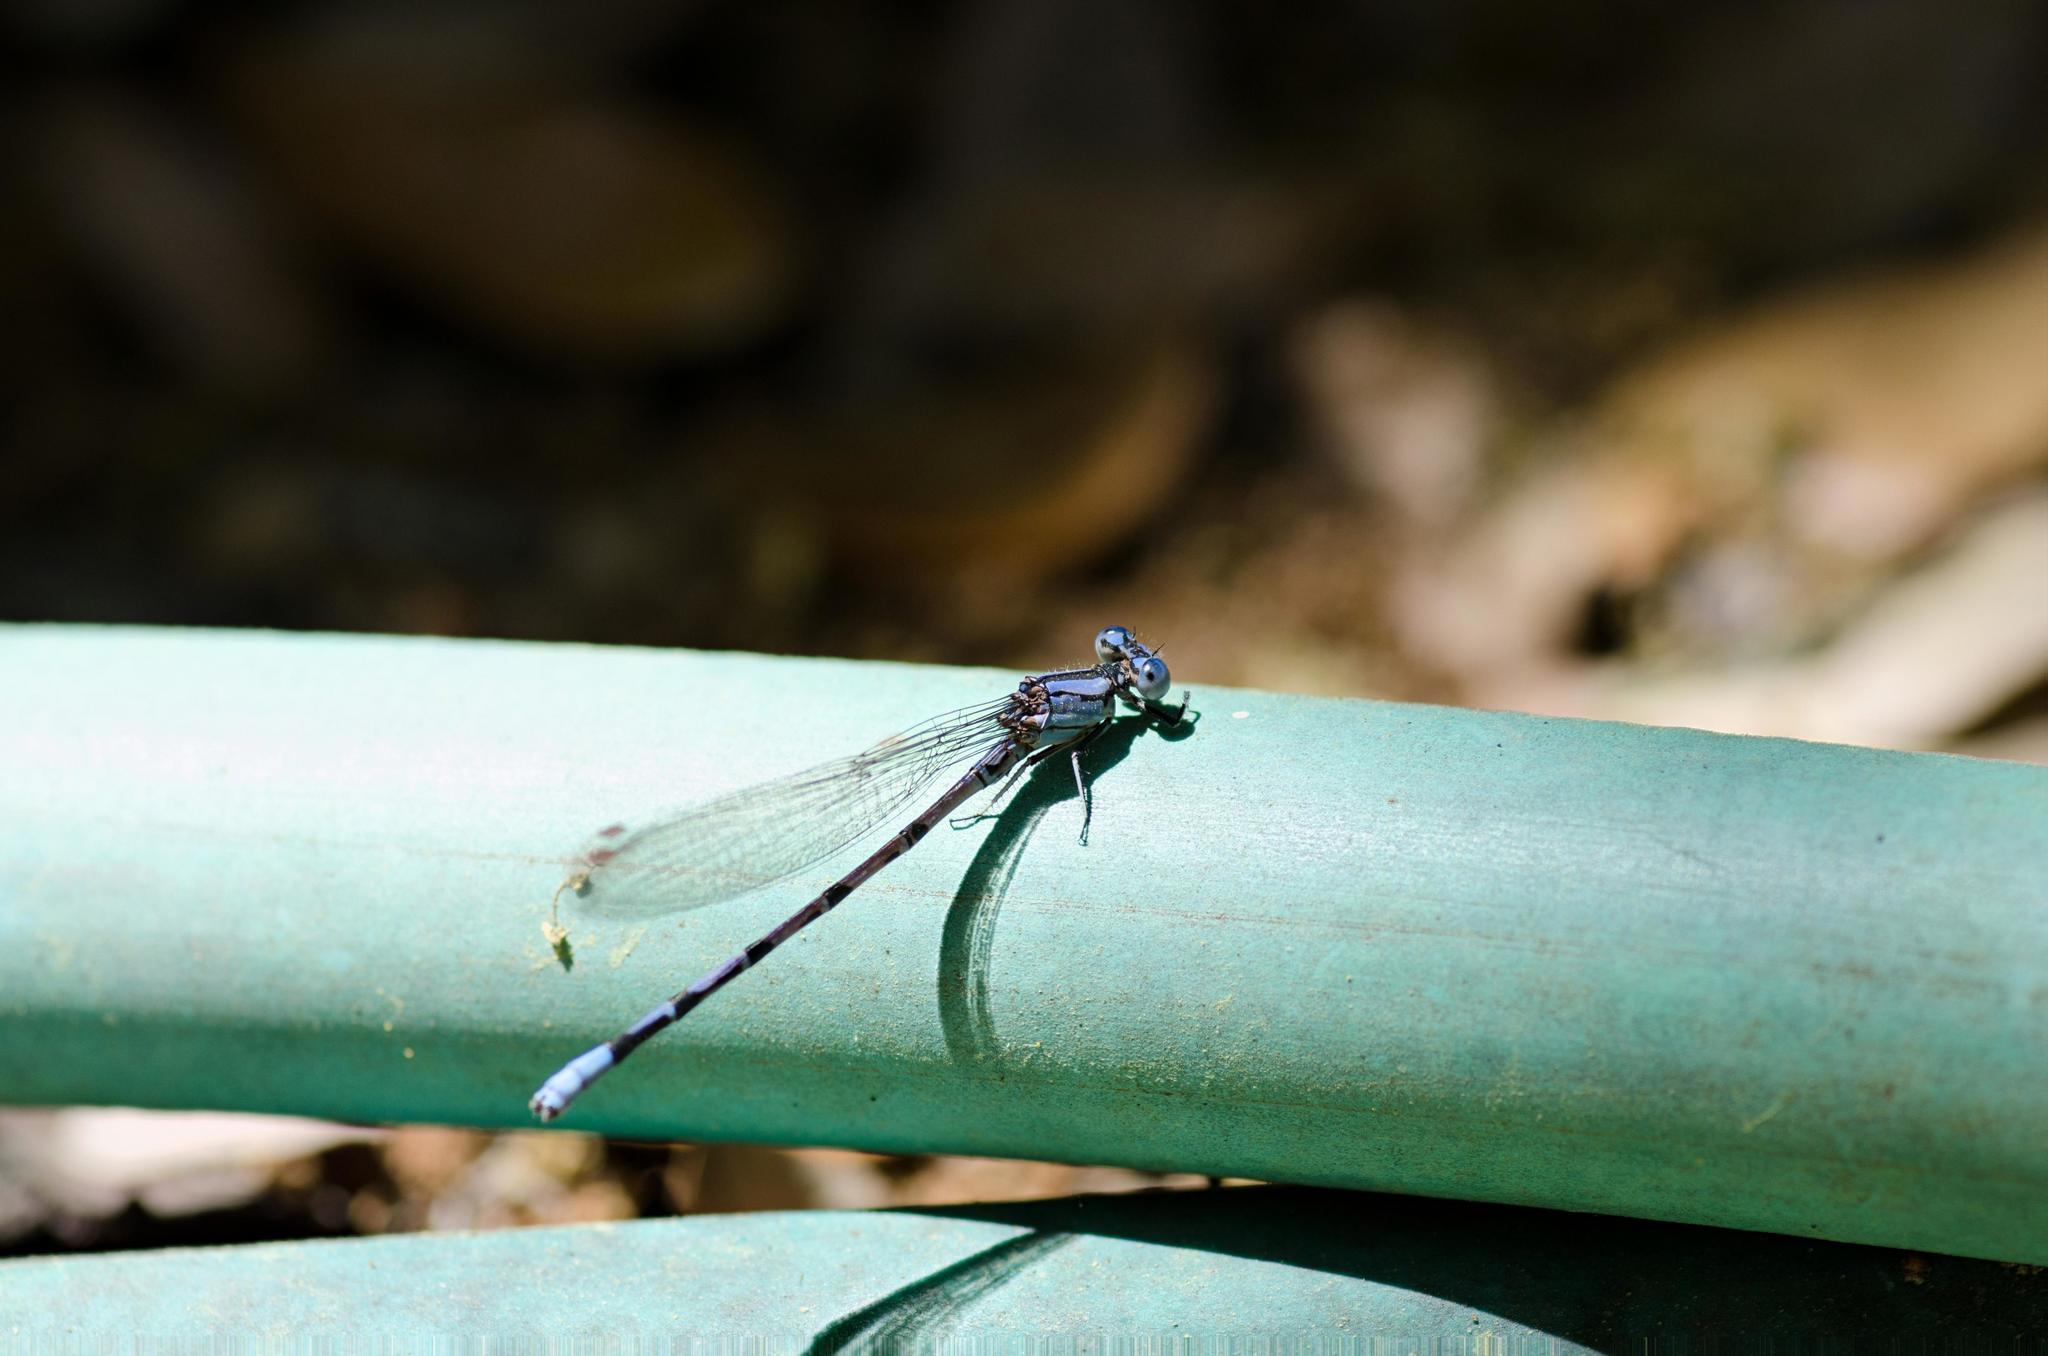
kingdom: Animalia
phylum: Arthropoda
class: Insecta
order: Odonata
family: Coenagrionidae
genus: Argia
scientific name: Argia funebris
